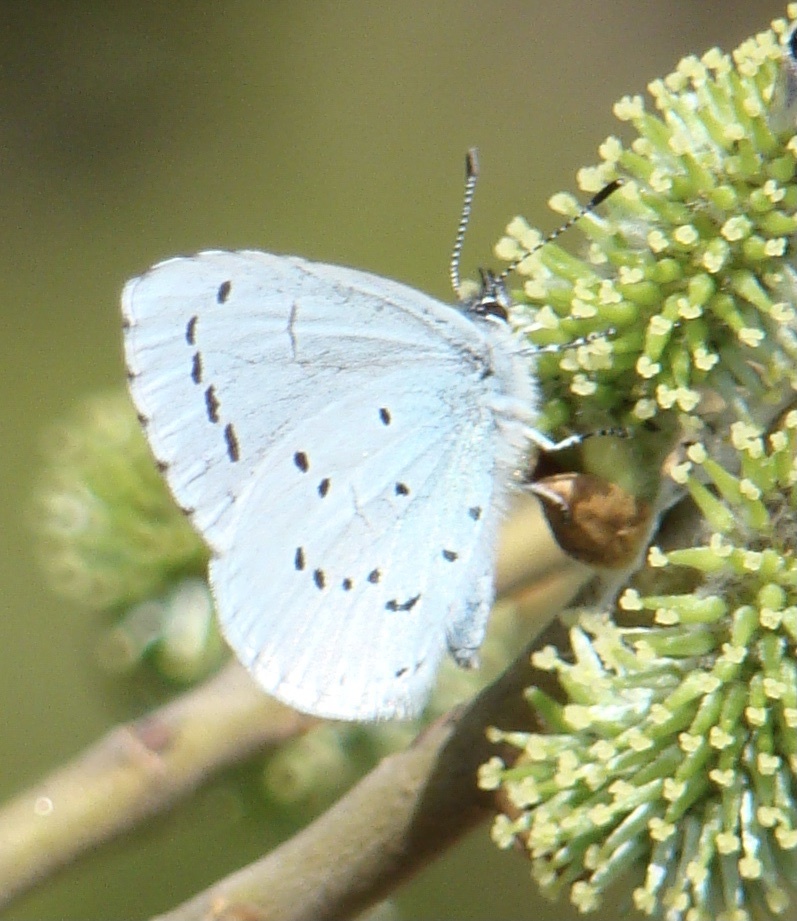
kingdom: Animalia
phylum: Arthropoda
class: Insecta
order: Lepidoptera
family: Lycaenidae
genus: Celastrina
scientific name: Celastrina argiolus
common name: Holly blue
